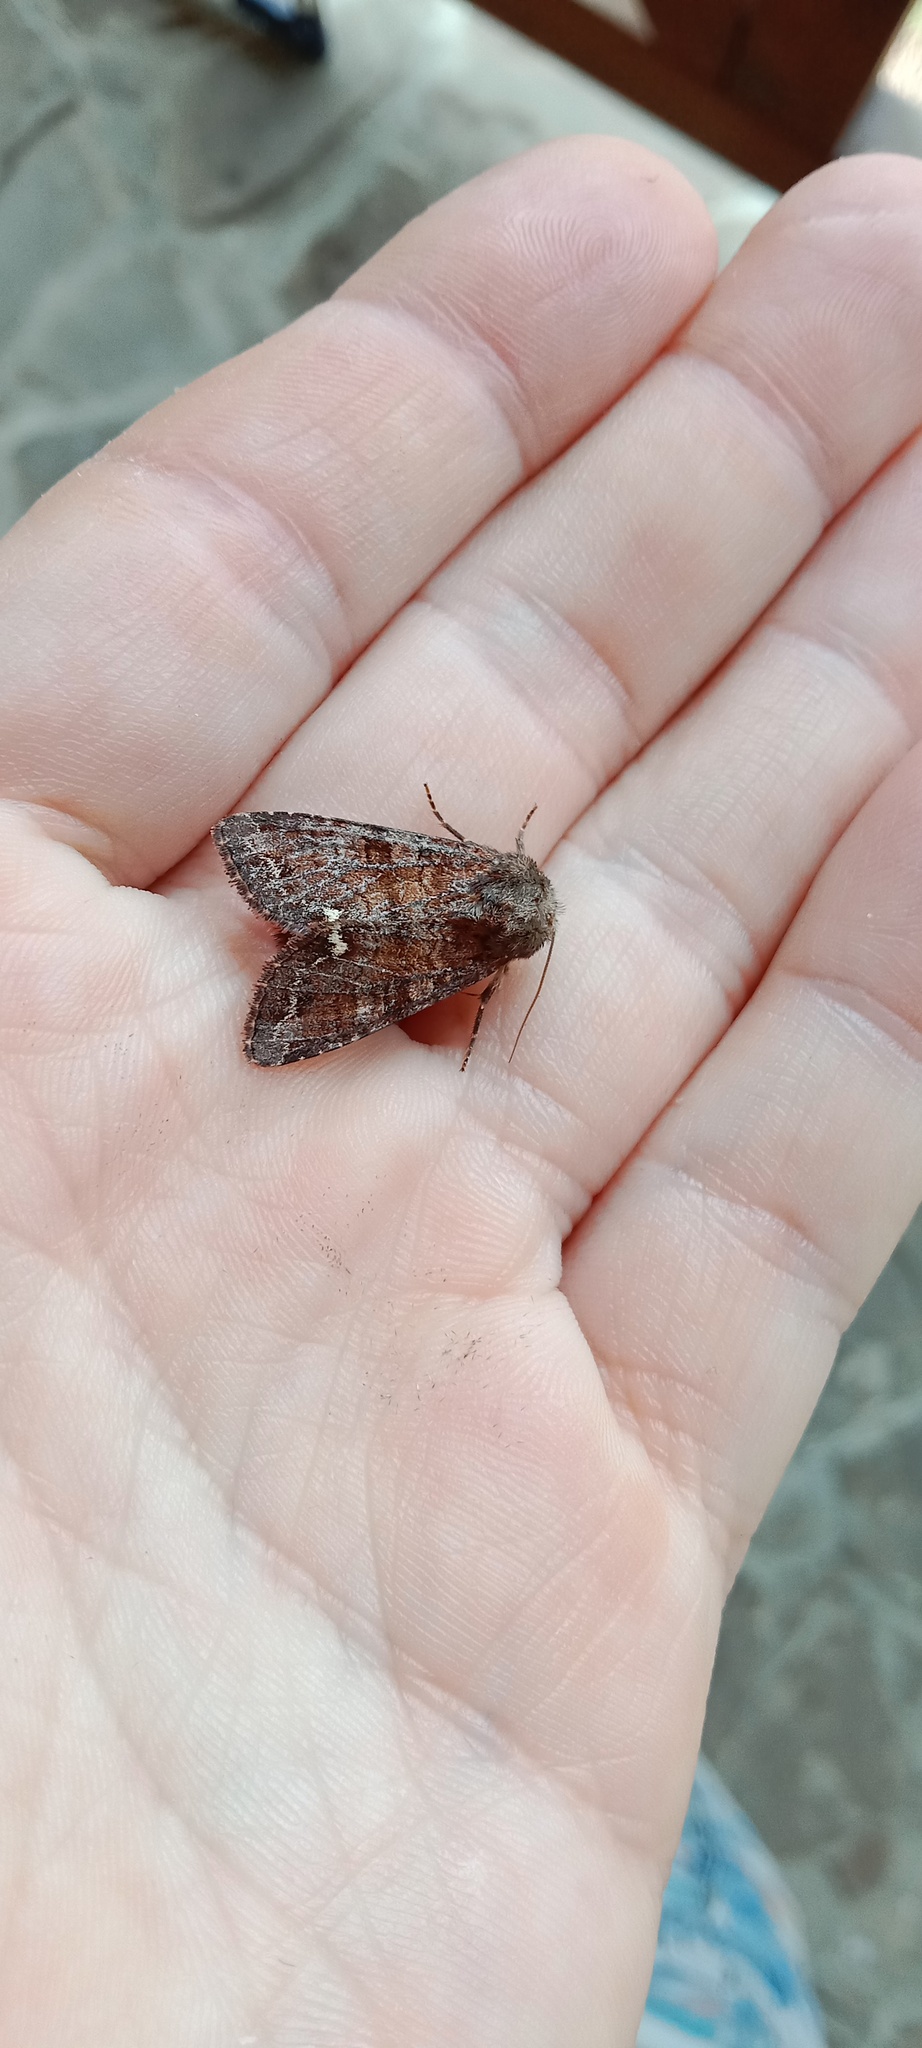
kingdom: Animalia
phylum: Arthropoda
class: Insecta
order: Lepidoptera
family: Noctuidae
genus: Ceramica
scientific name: Ceramica pisi
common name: Broom moth
